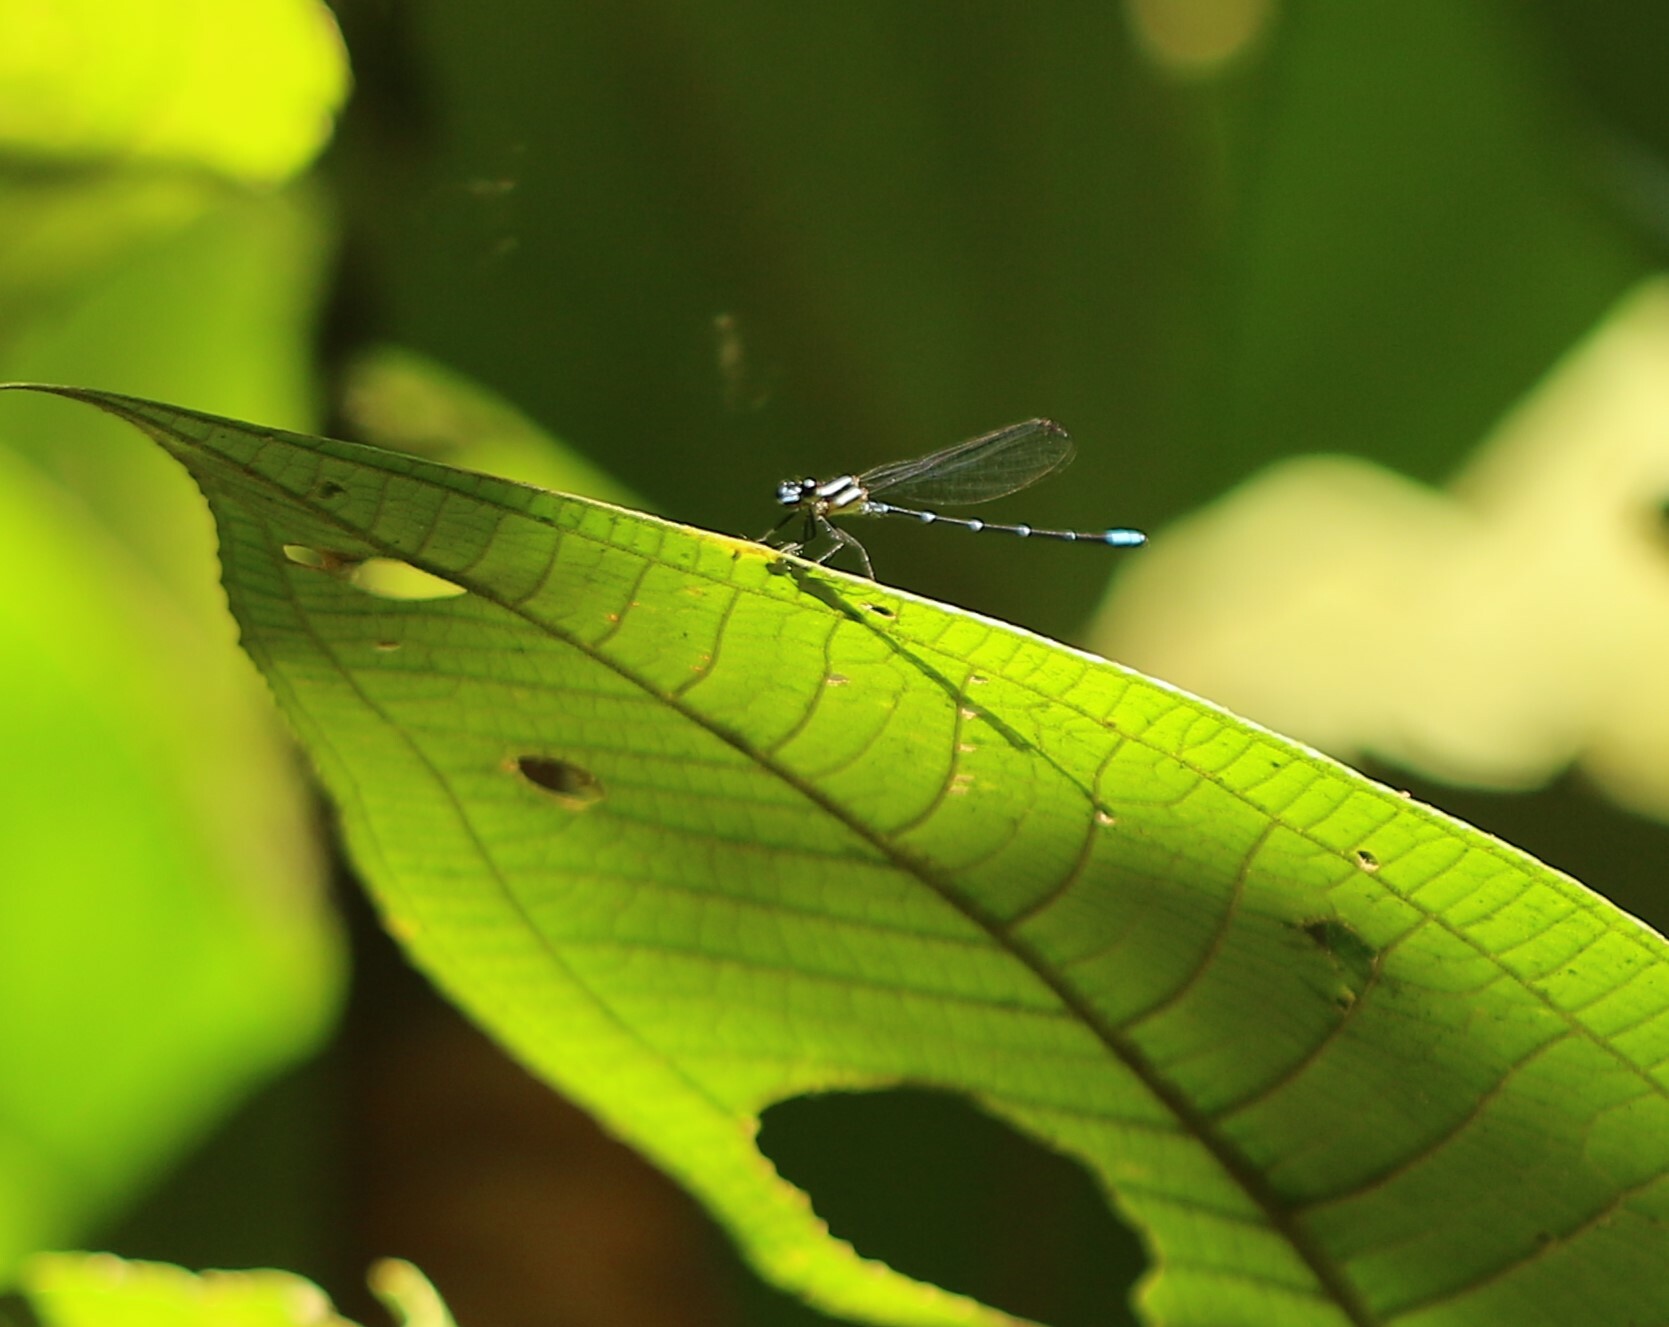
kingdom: Animalia
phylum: Arthropoda
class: Insecta
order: Odonata
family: Coenagrionidae
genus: Argia
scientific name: Argia oculata
